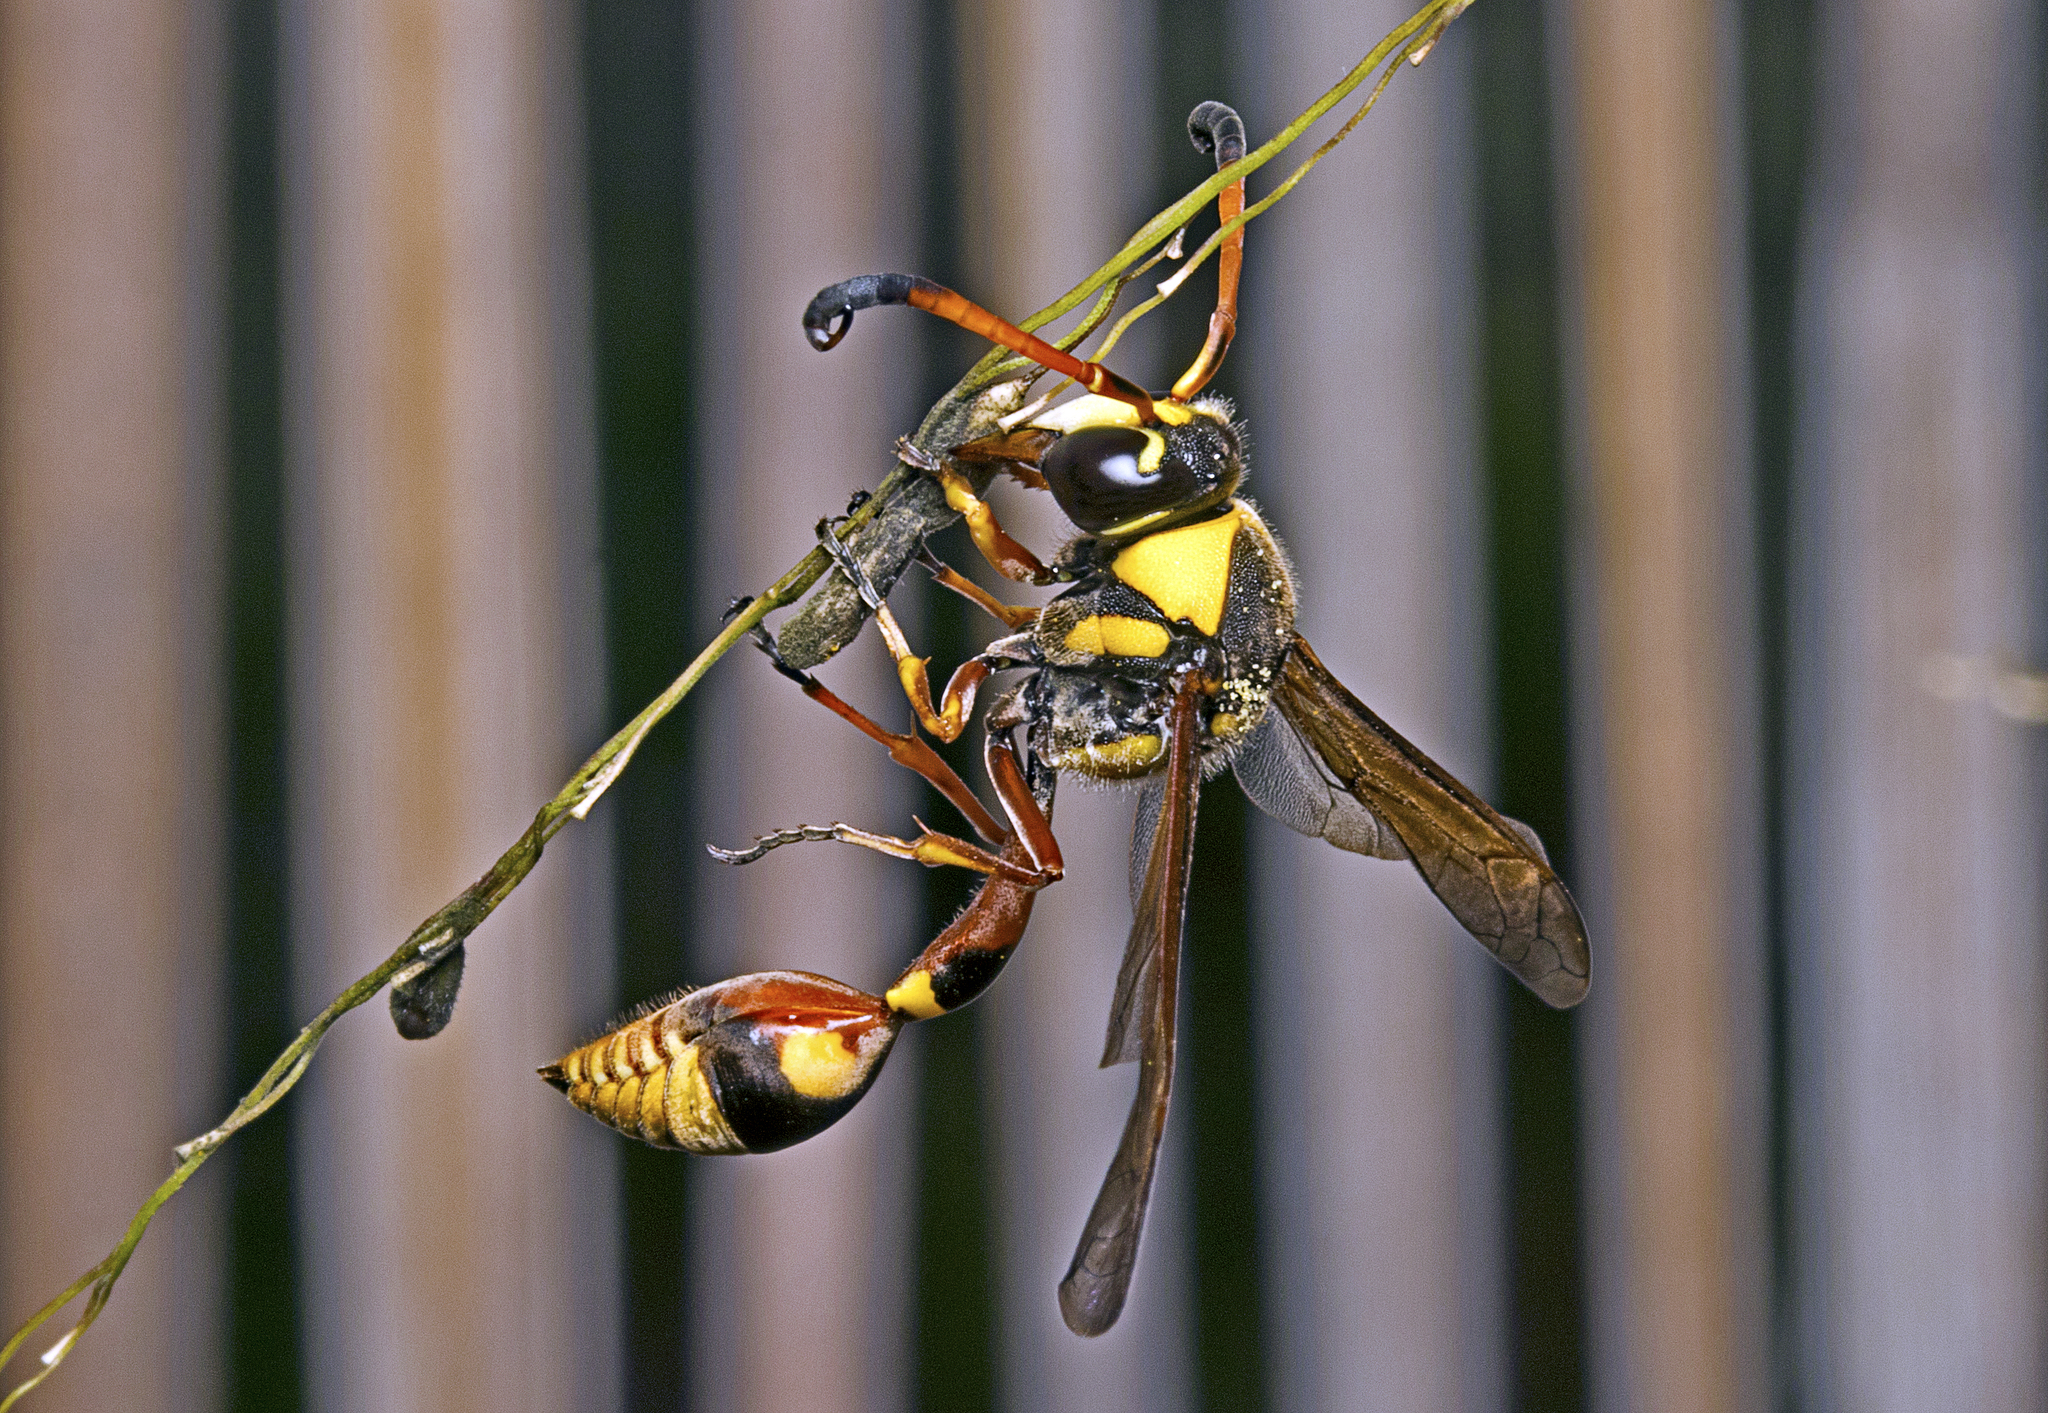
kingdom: Animalia
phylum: Arthropoda
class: Insecta
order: Hymenoptera
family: Eumenidae
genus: Delta
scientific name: Delta campaniforme
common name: Yellow and black potter wasp
